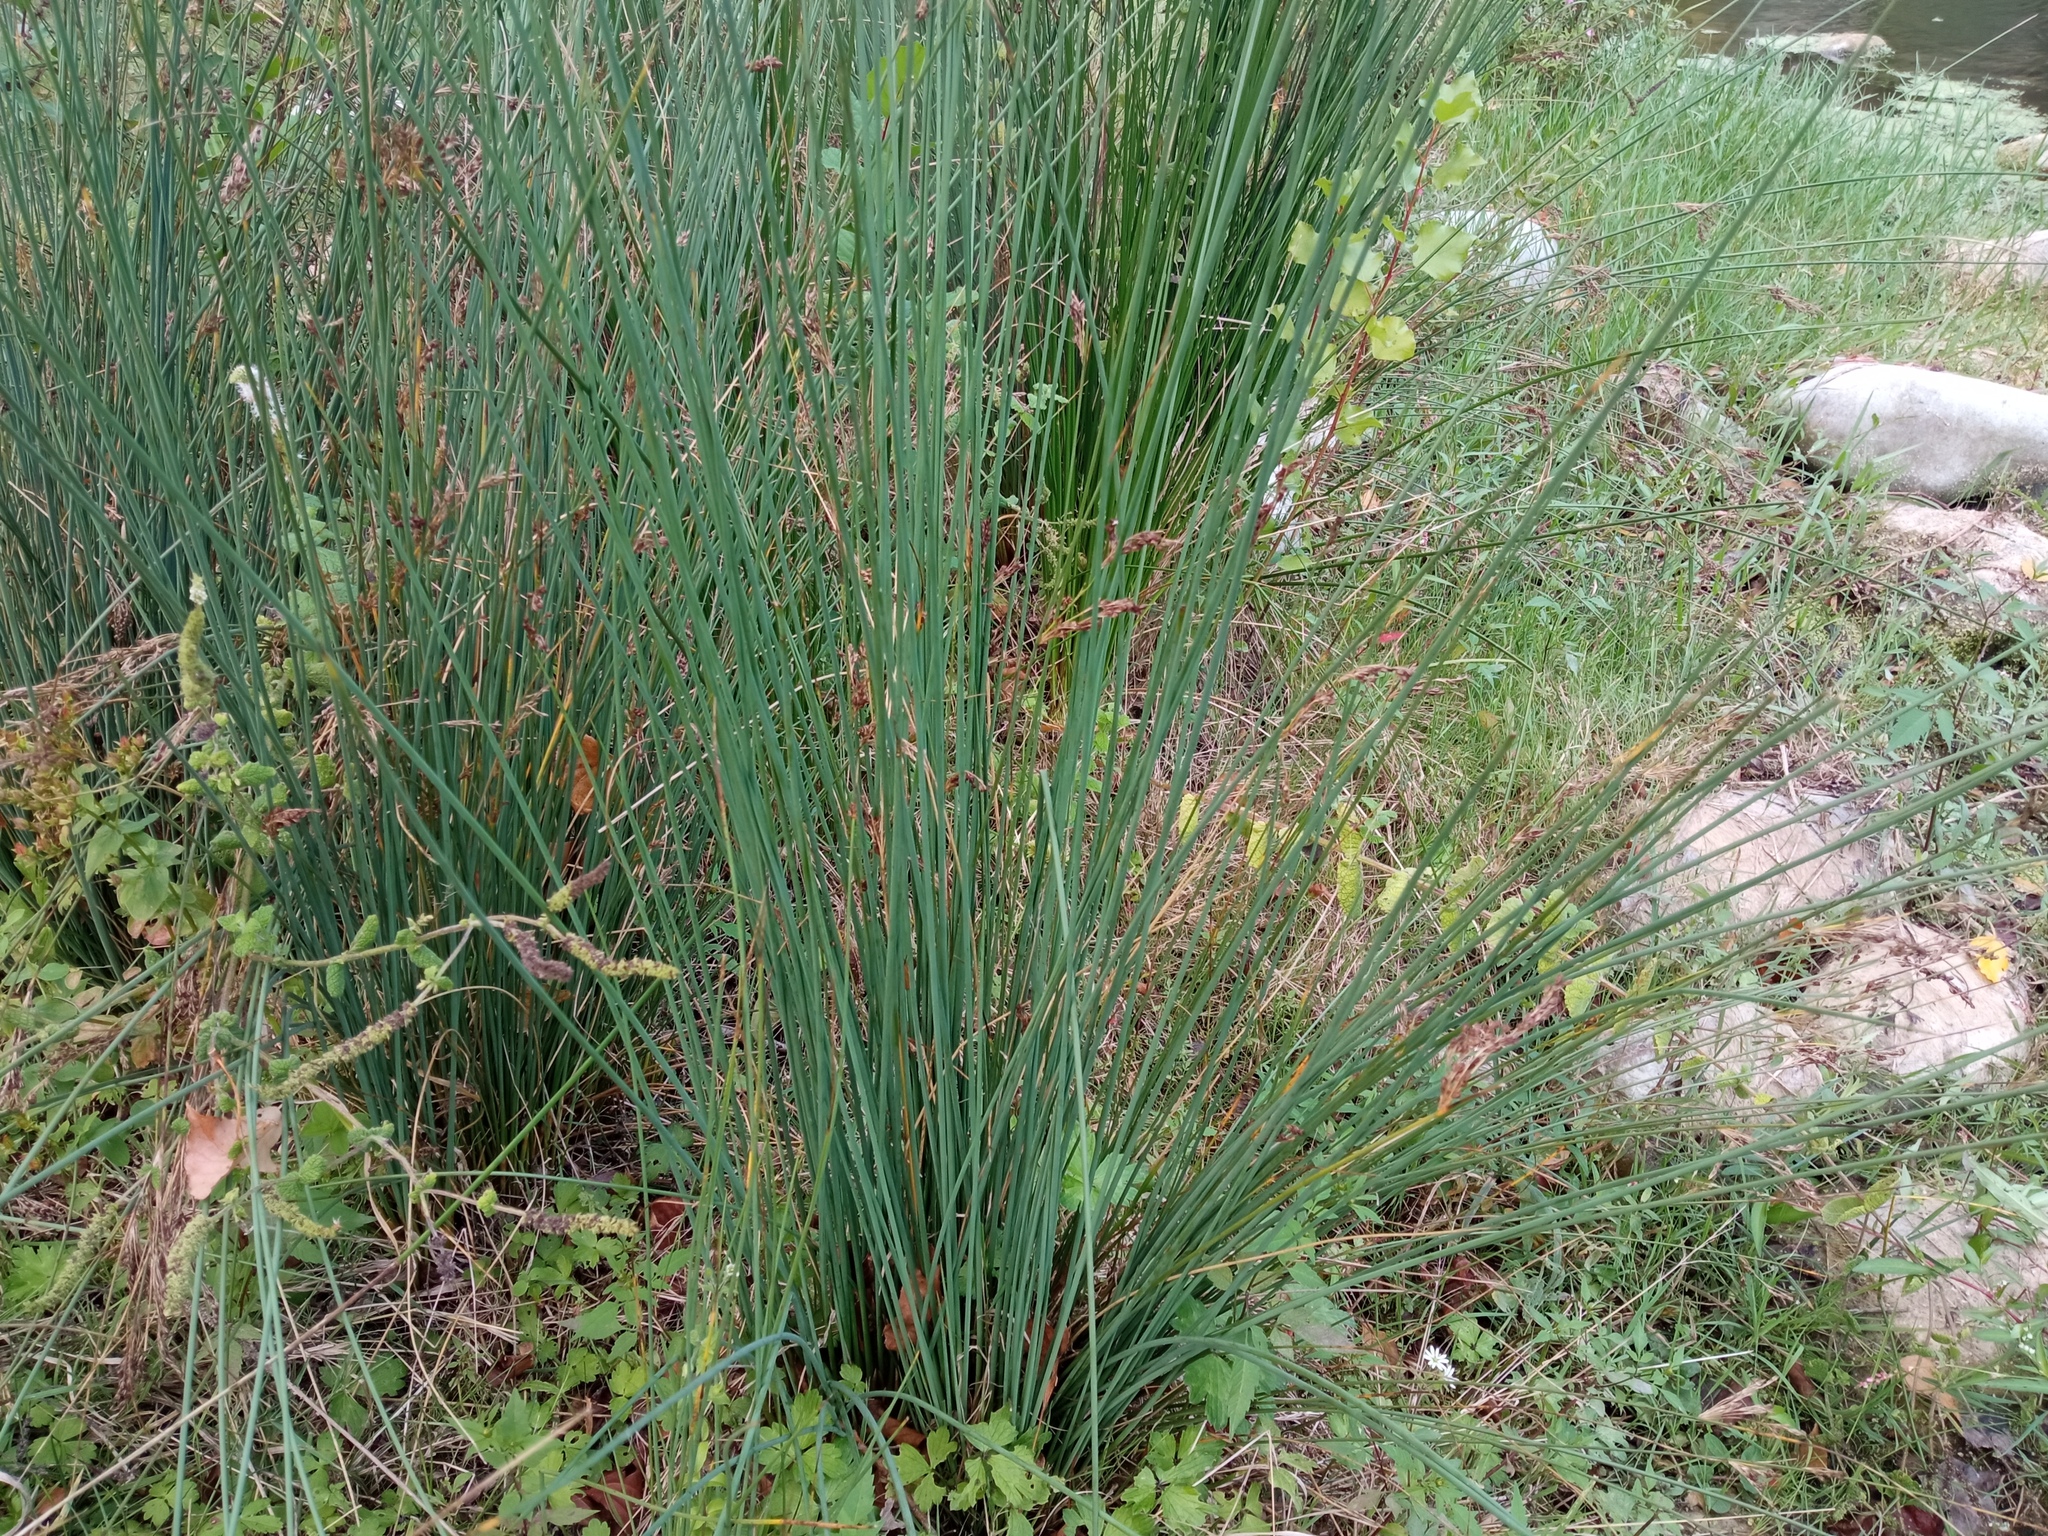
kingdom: Plantae
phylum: Tracheophyta
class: Liliopsida
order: Poales
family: Juncaceae
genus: Juncus
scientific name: Juncus inflexus
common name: Hard rush
